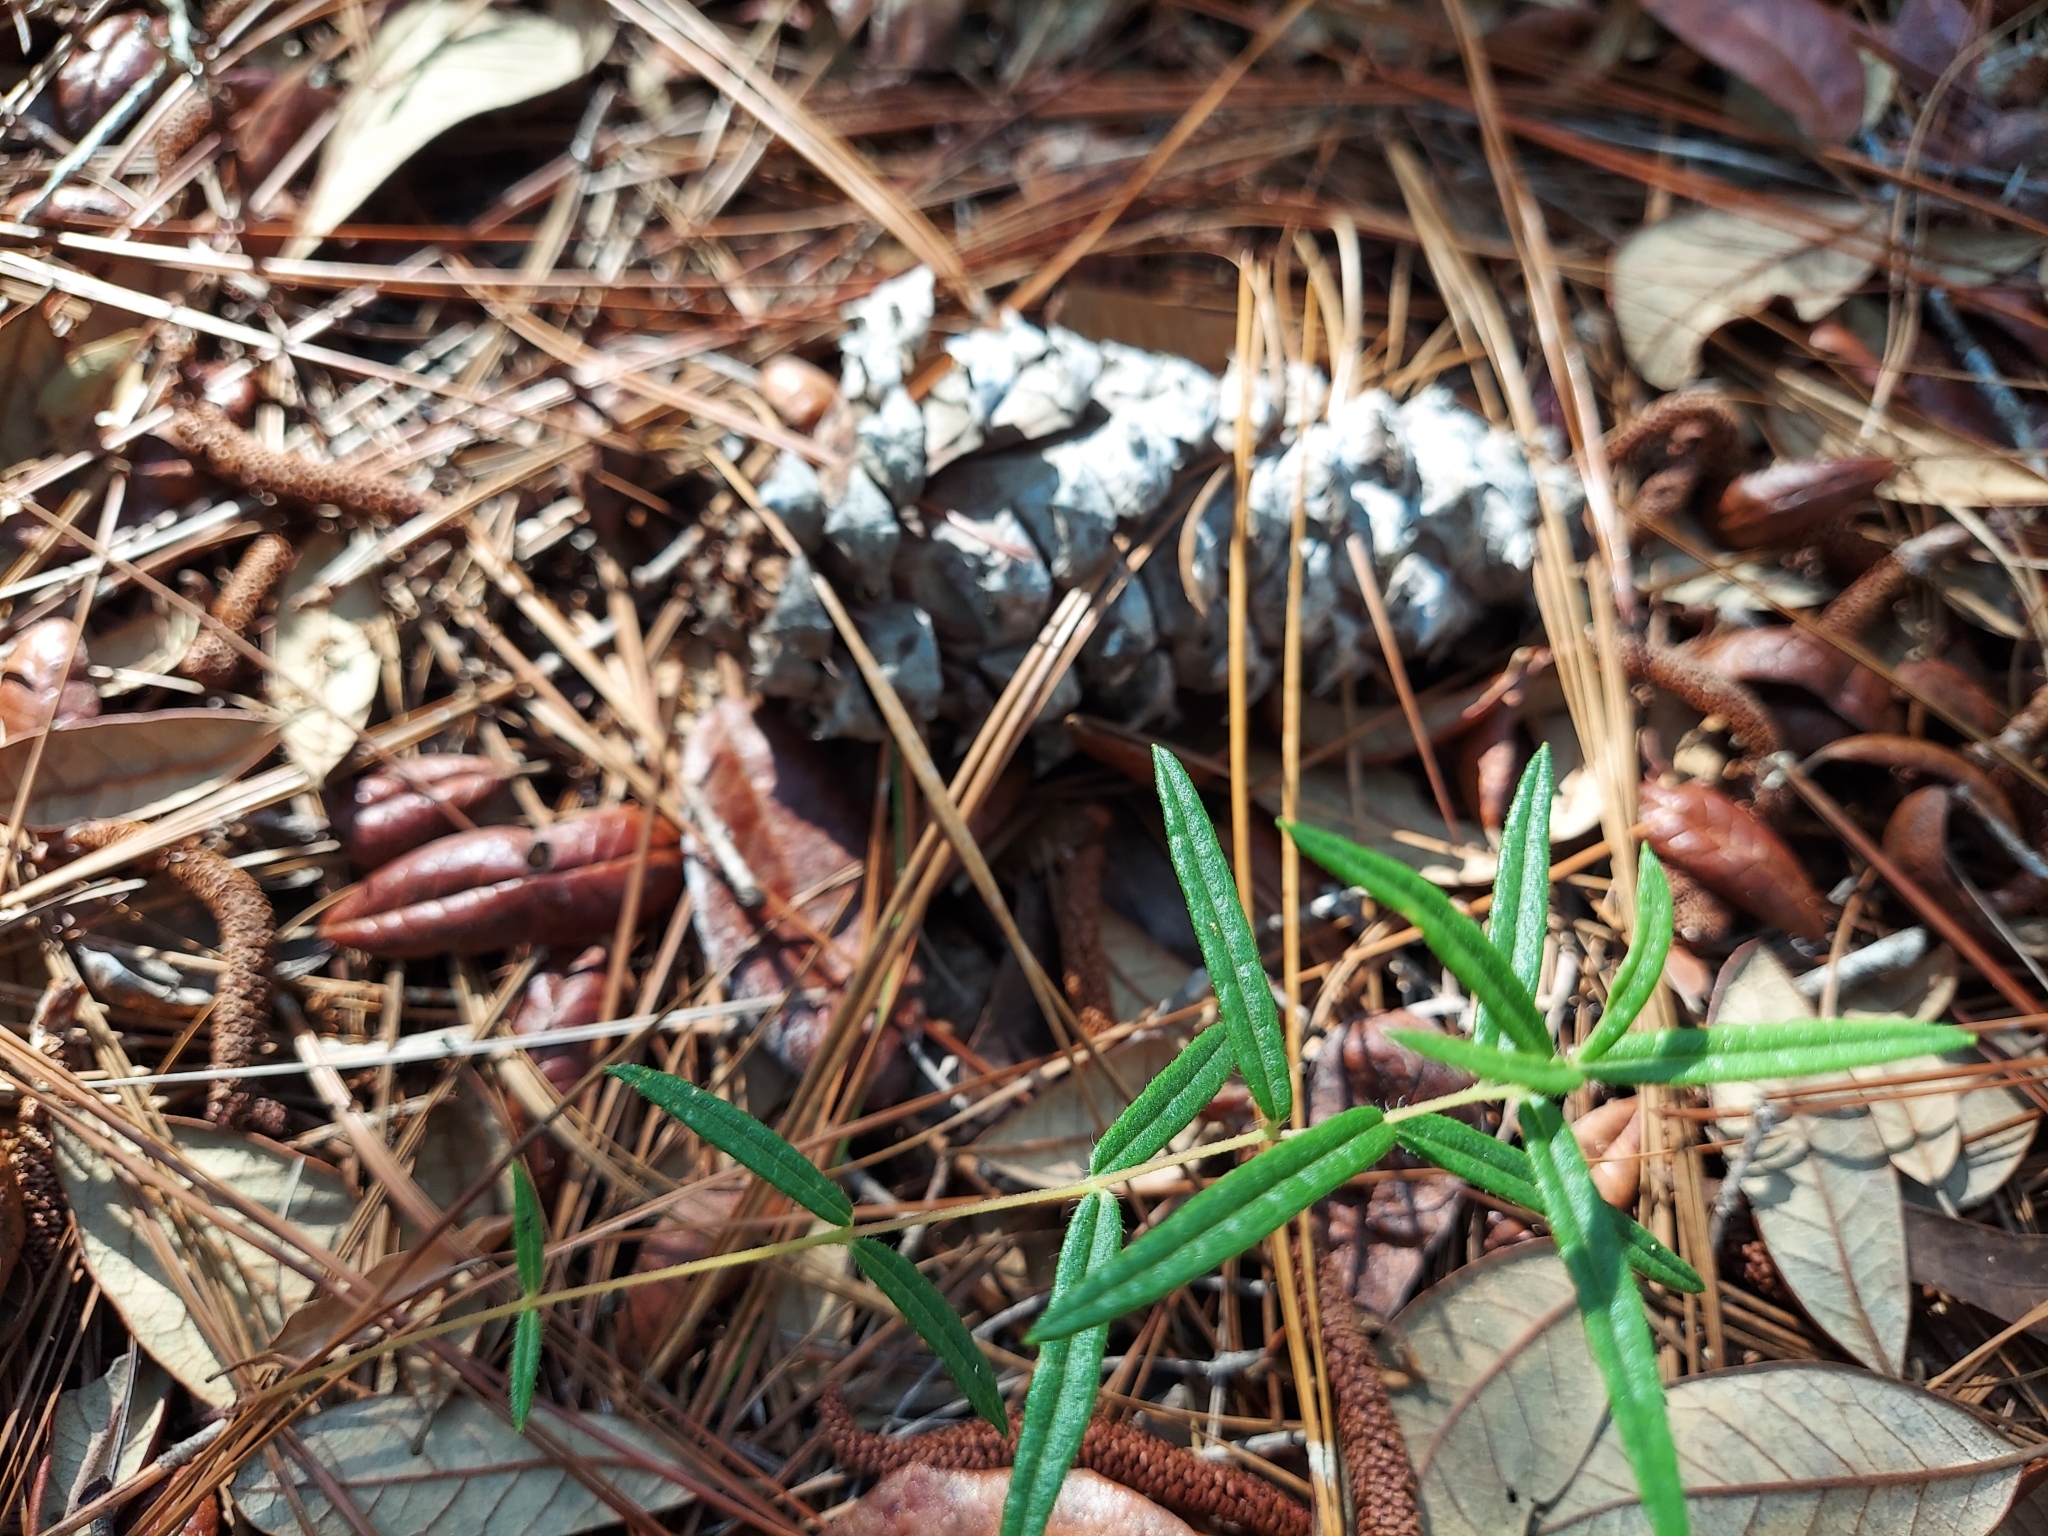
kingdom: Plantae
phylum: Tracheophyta
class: Magnoliopsida
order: Asterales
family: Asteraceae
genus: Phoebanthus
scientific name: Phoebanthus grandiflora
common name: Florida false sunflower
